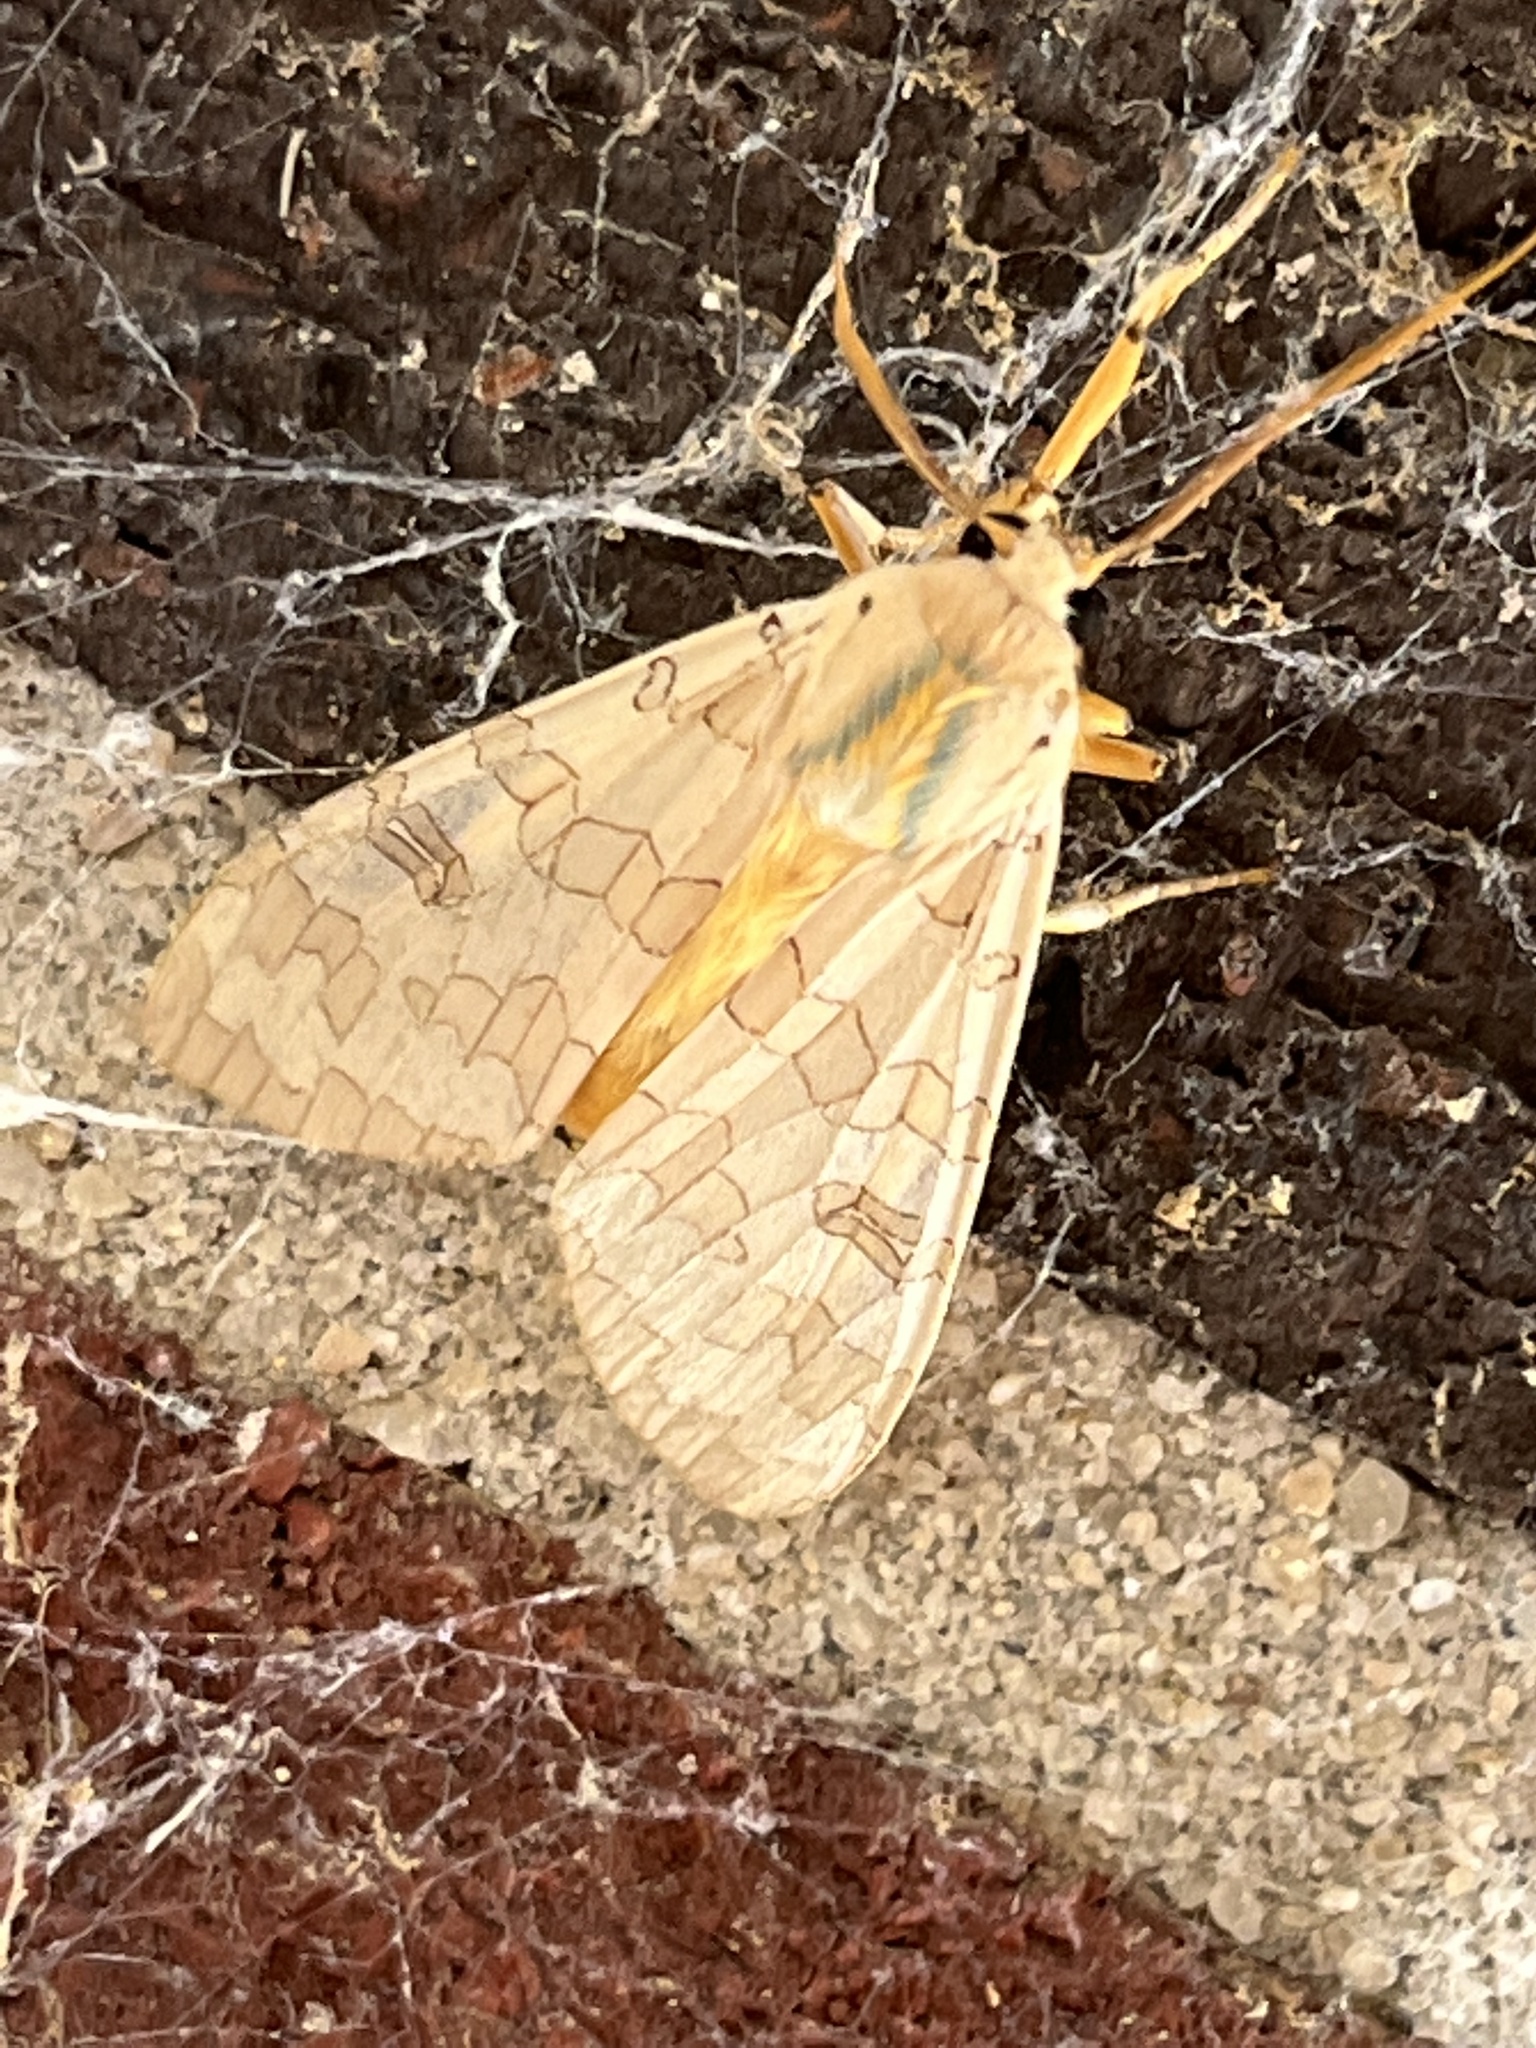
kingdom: Animalia
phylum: Arthropoda
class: Insecta
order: Lepidoptera
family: Erebidae
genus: Halysidota
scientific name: Halysidota
